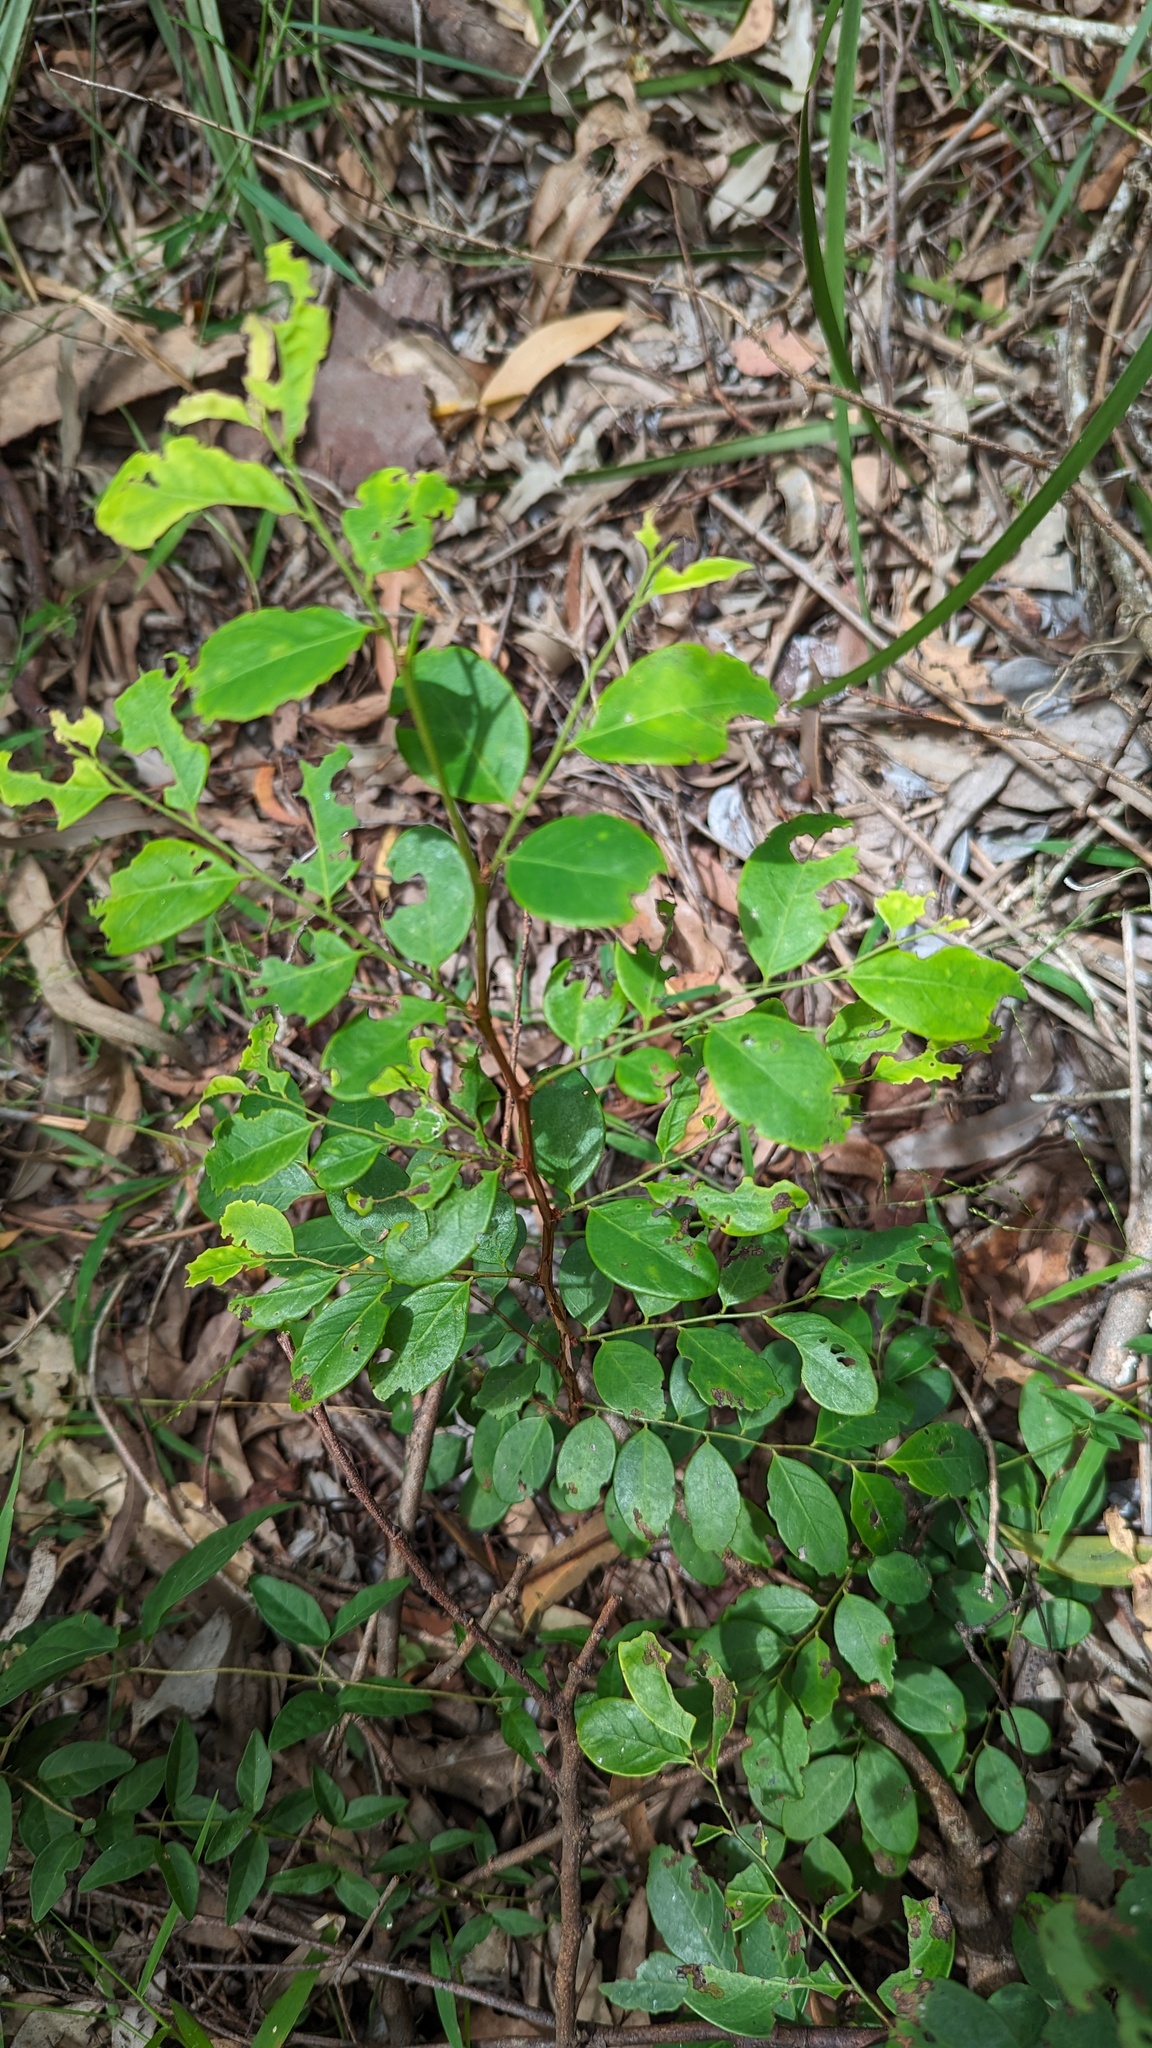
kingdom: Plantae
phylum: Tracheophyta
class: Magnoliopsida
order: Malpighiales
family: Phyllanthaceae
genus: Breynia
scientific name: Breynia oblongifolia
